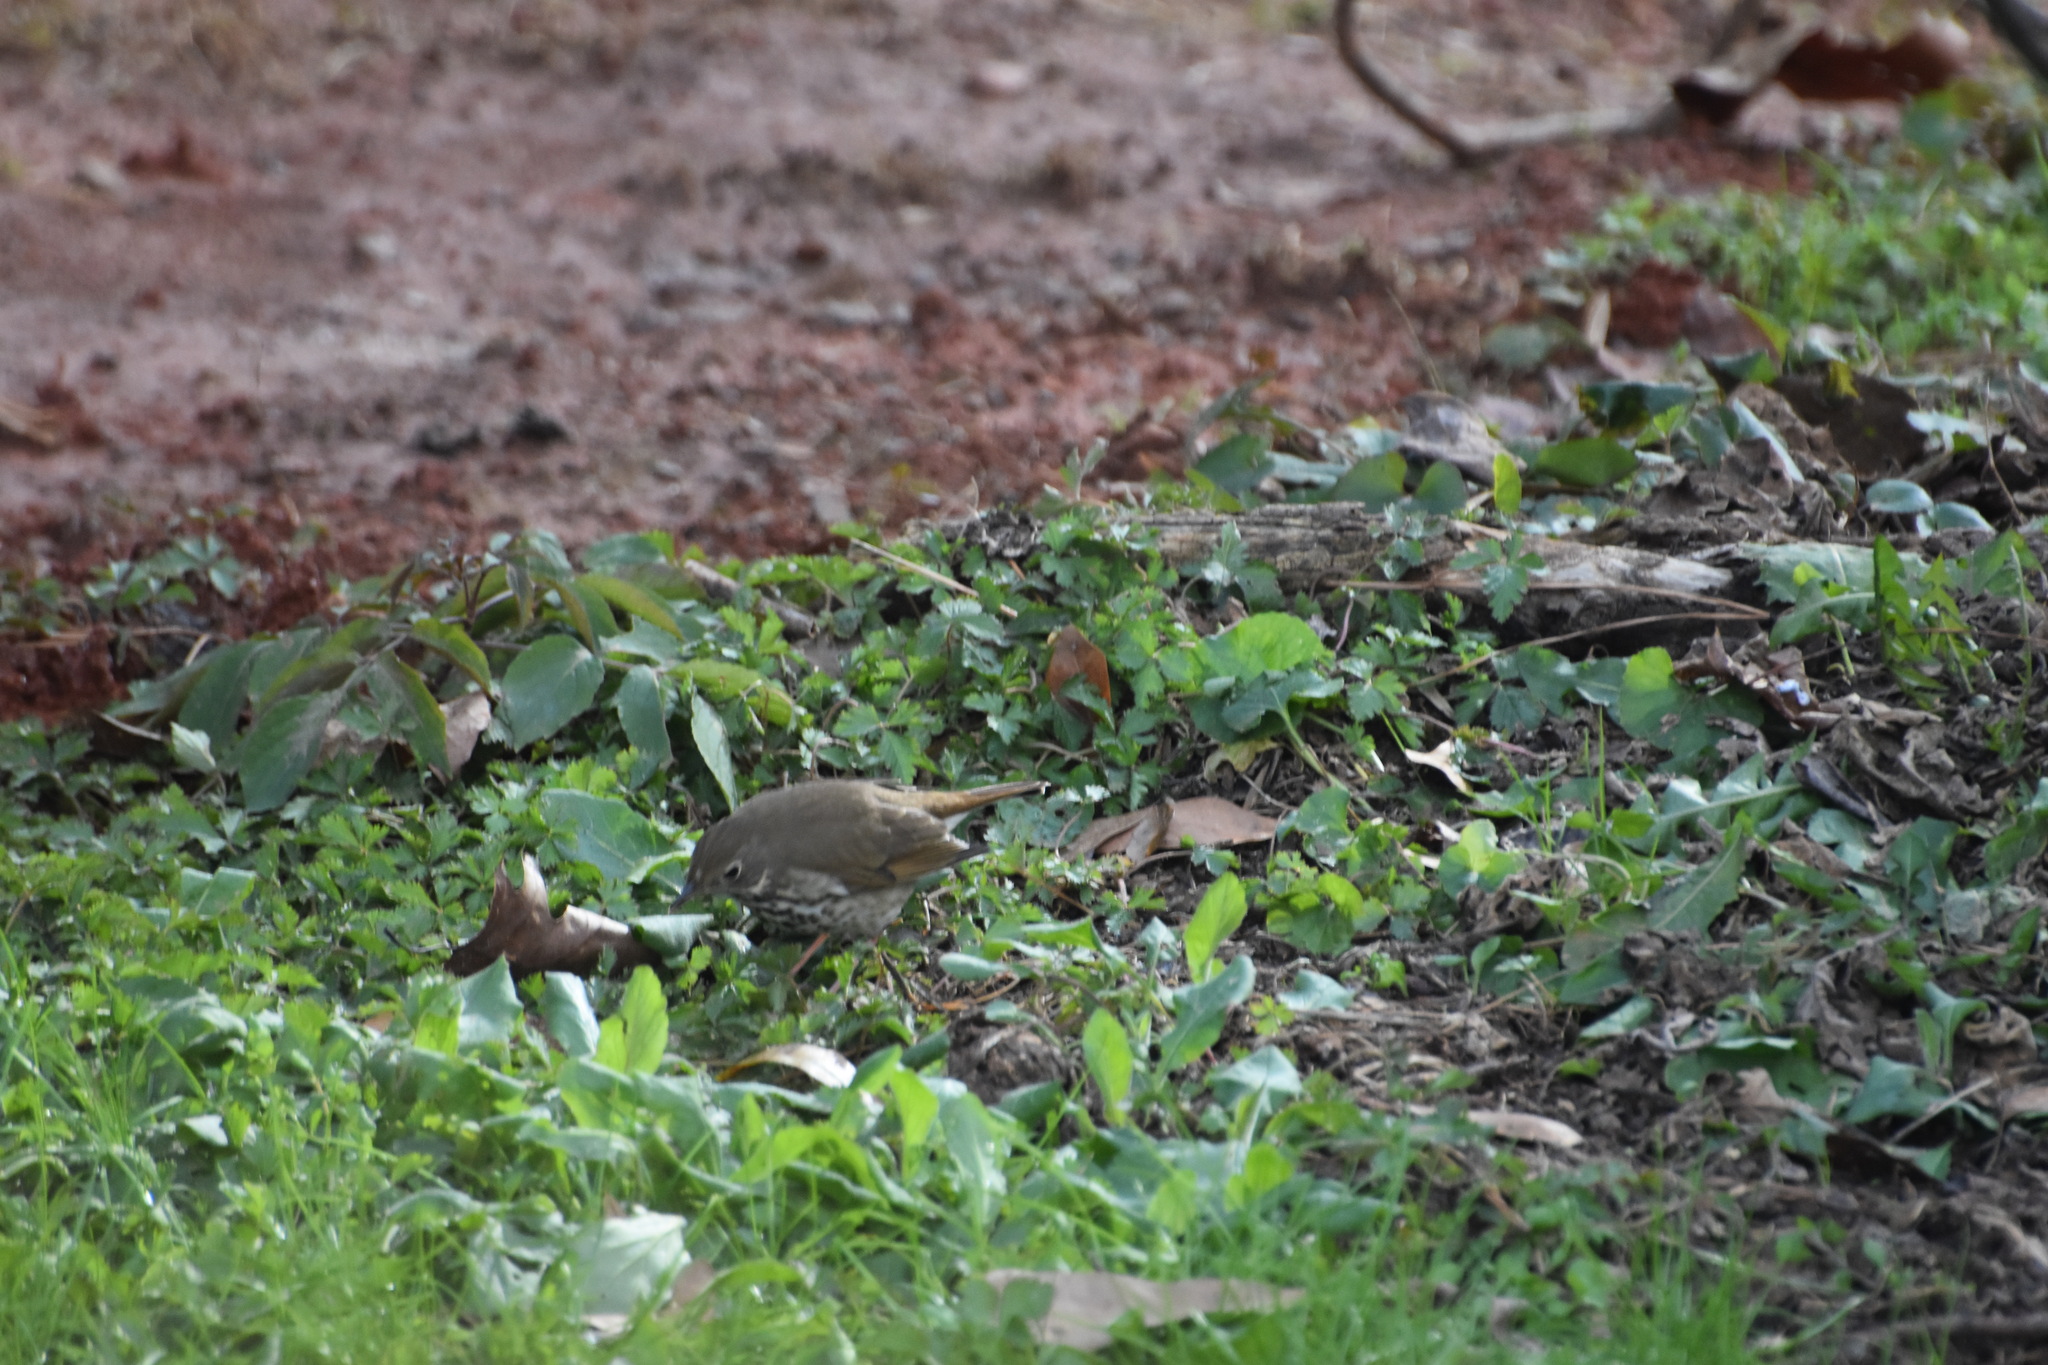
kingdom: Animalia
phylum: Chordata
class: Aves
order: Passeriformes
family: Turdidae
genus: Catharus
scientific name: Catharus guttatus
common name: Hermit thrush
